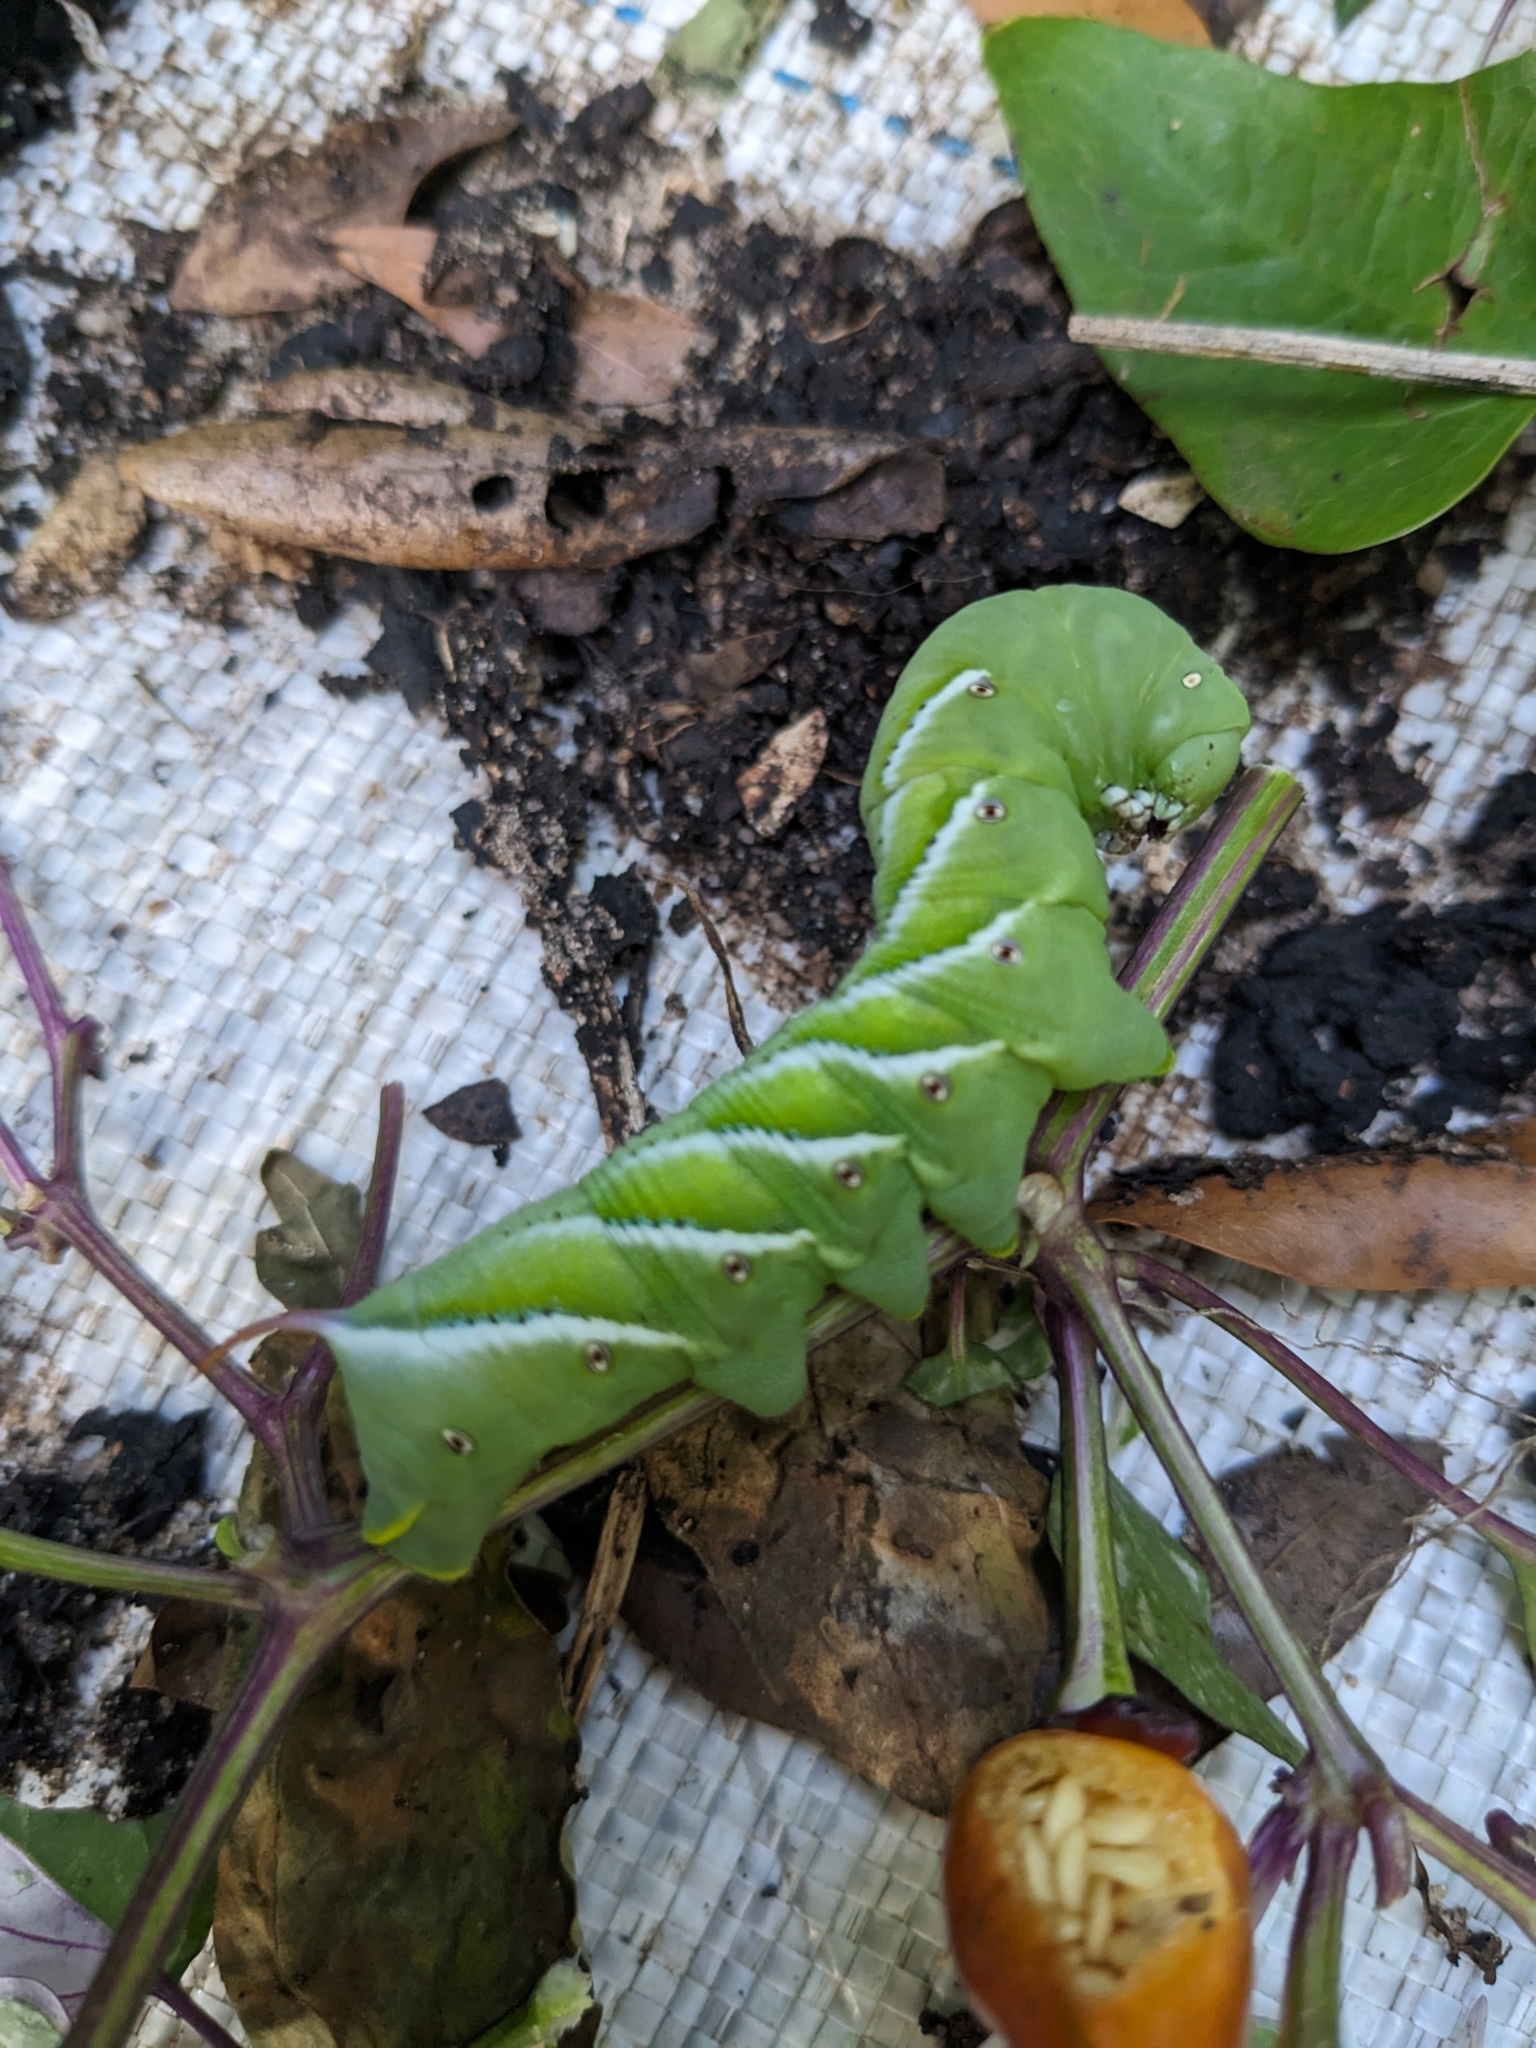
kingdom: Animalia
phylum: Arthropoda
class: Insecta
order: Lepidoptera
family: Sphingidae
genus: Manduca
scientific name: Manduca sexta
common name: Carolina sphinx
